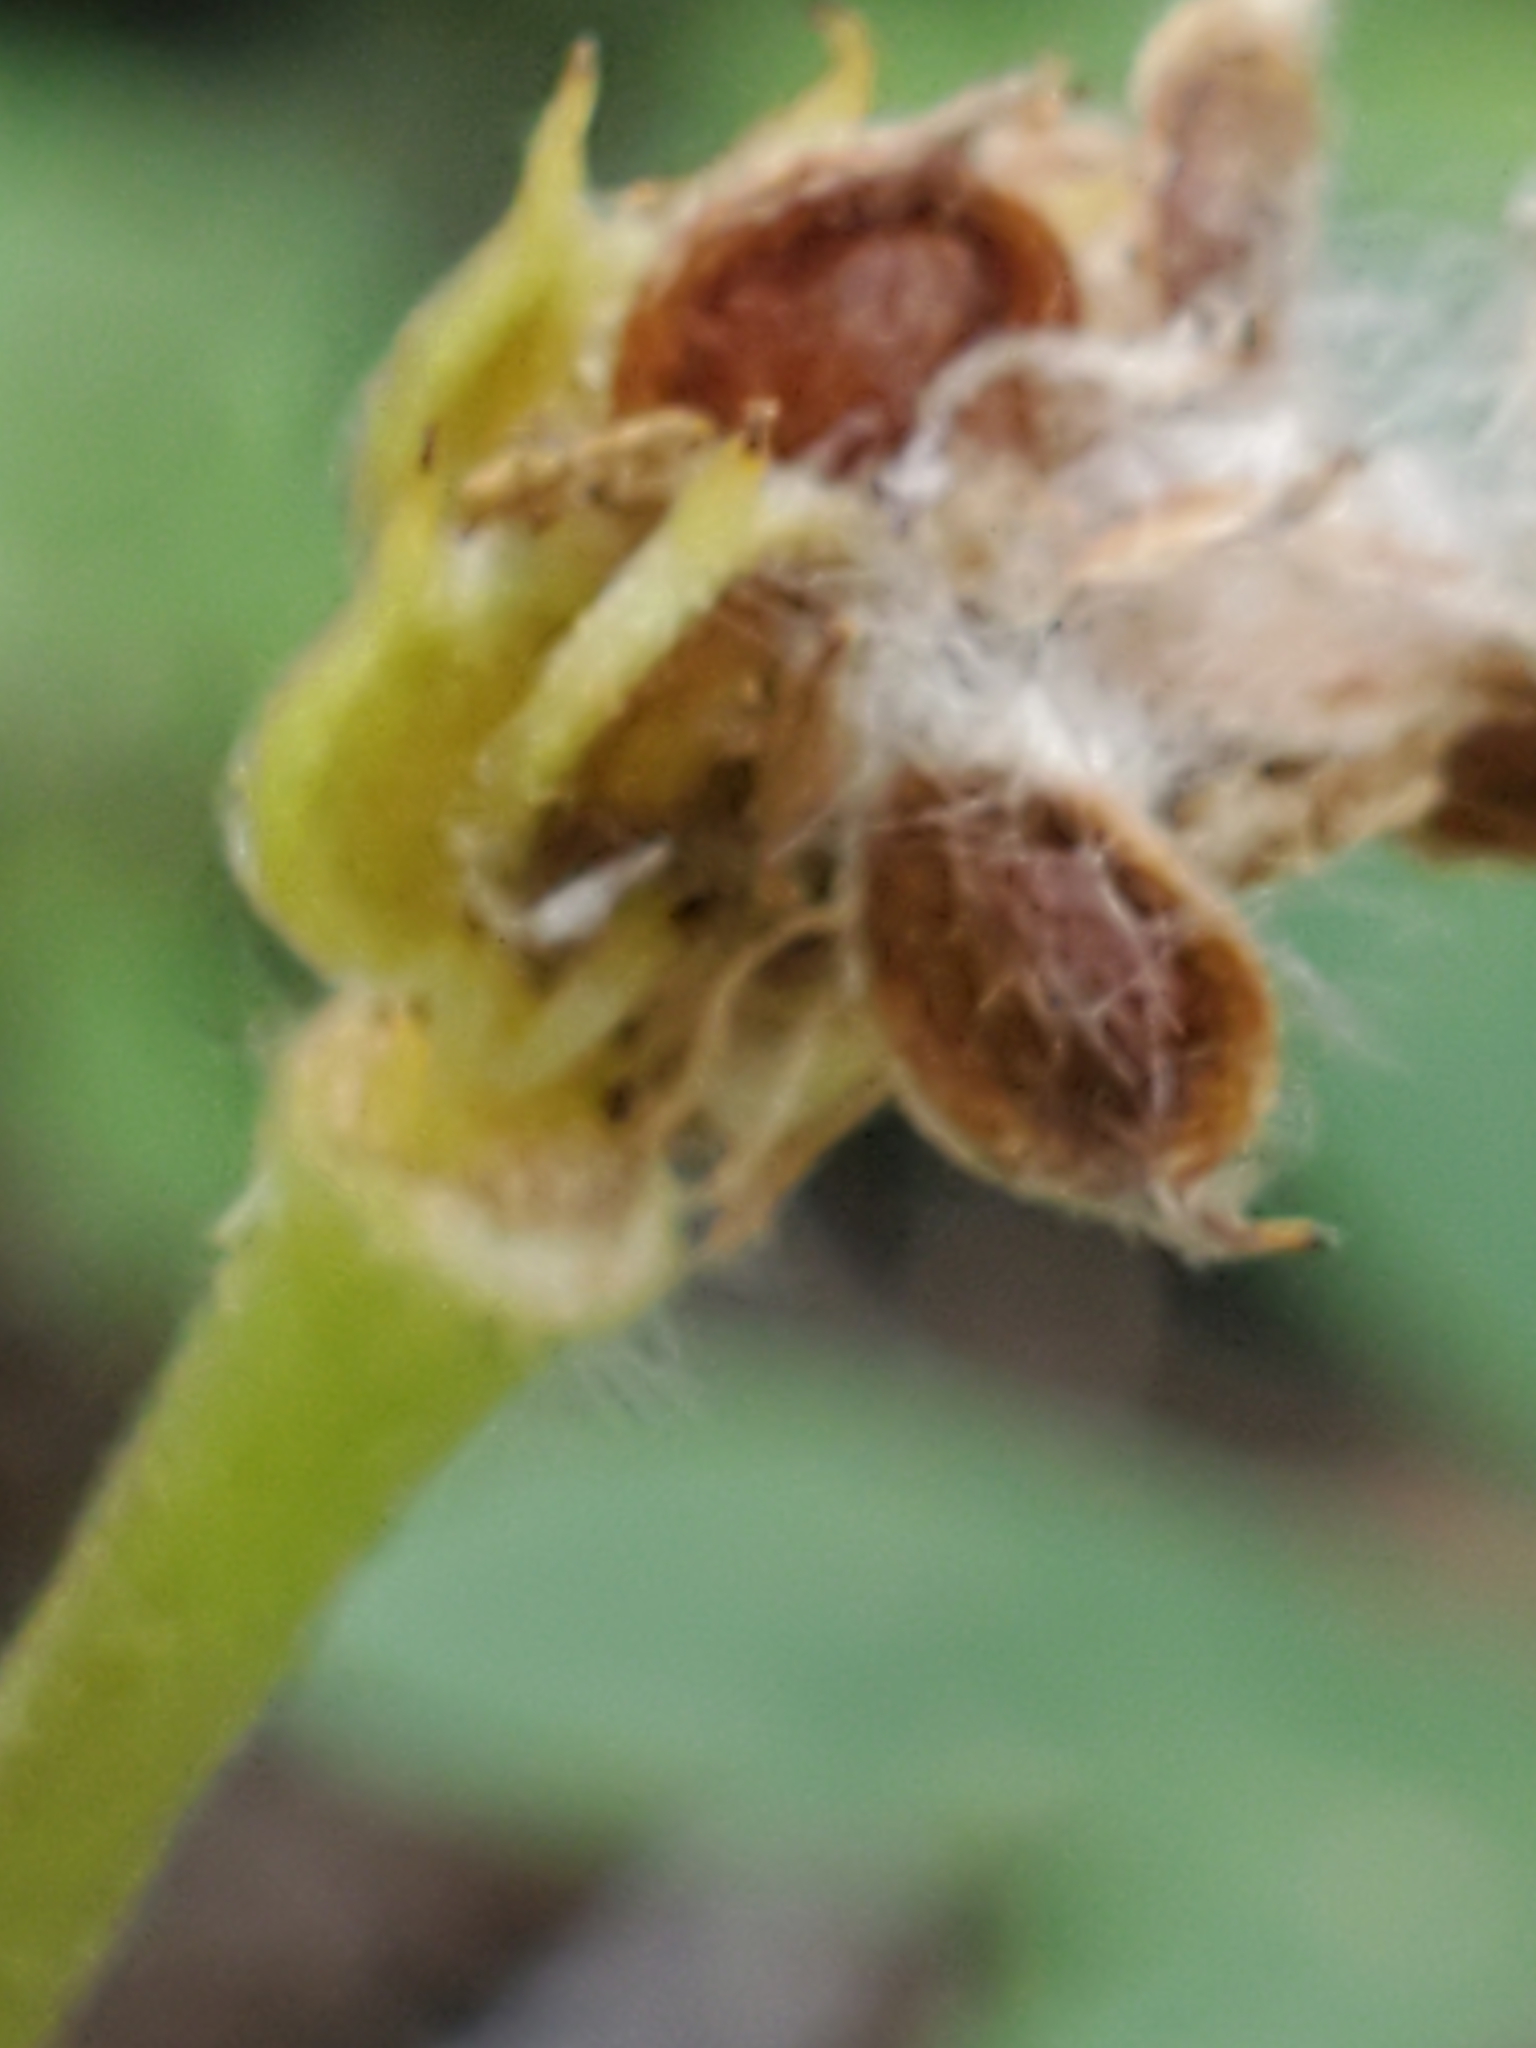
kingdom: Plantae
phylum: Tracheophyta
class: Magnoliopsida
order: Ranunculales
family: Ranunculaceae
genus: Anemone
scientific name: Anemone edwardsiana
